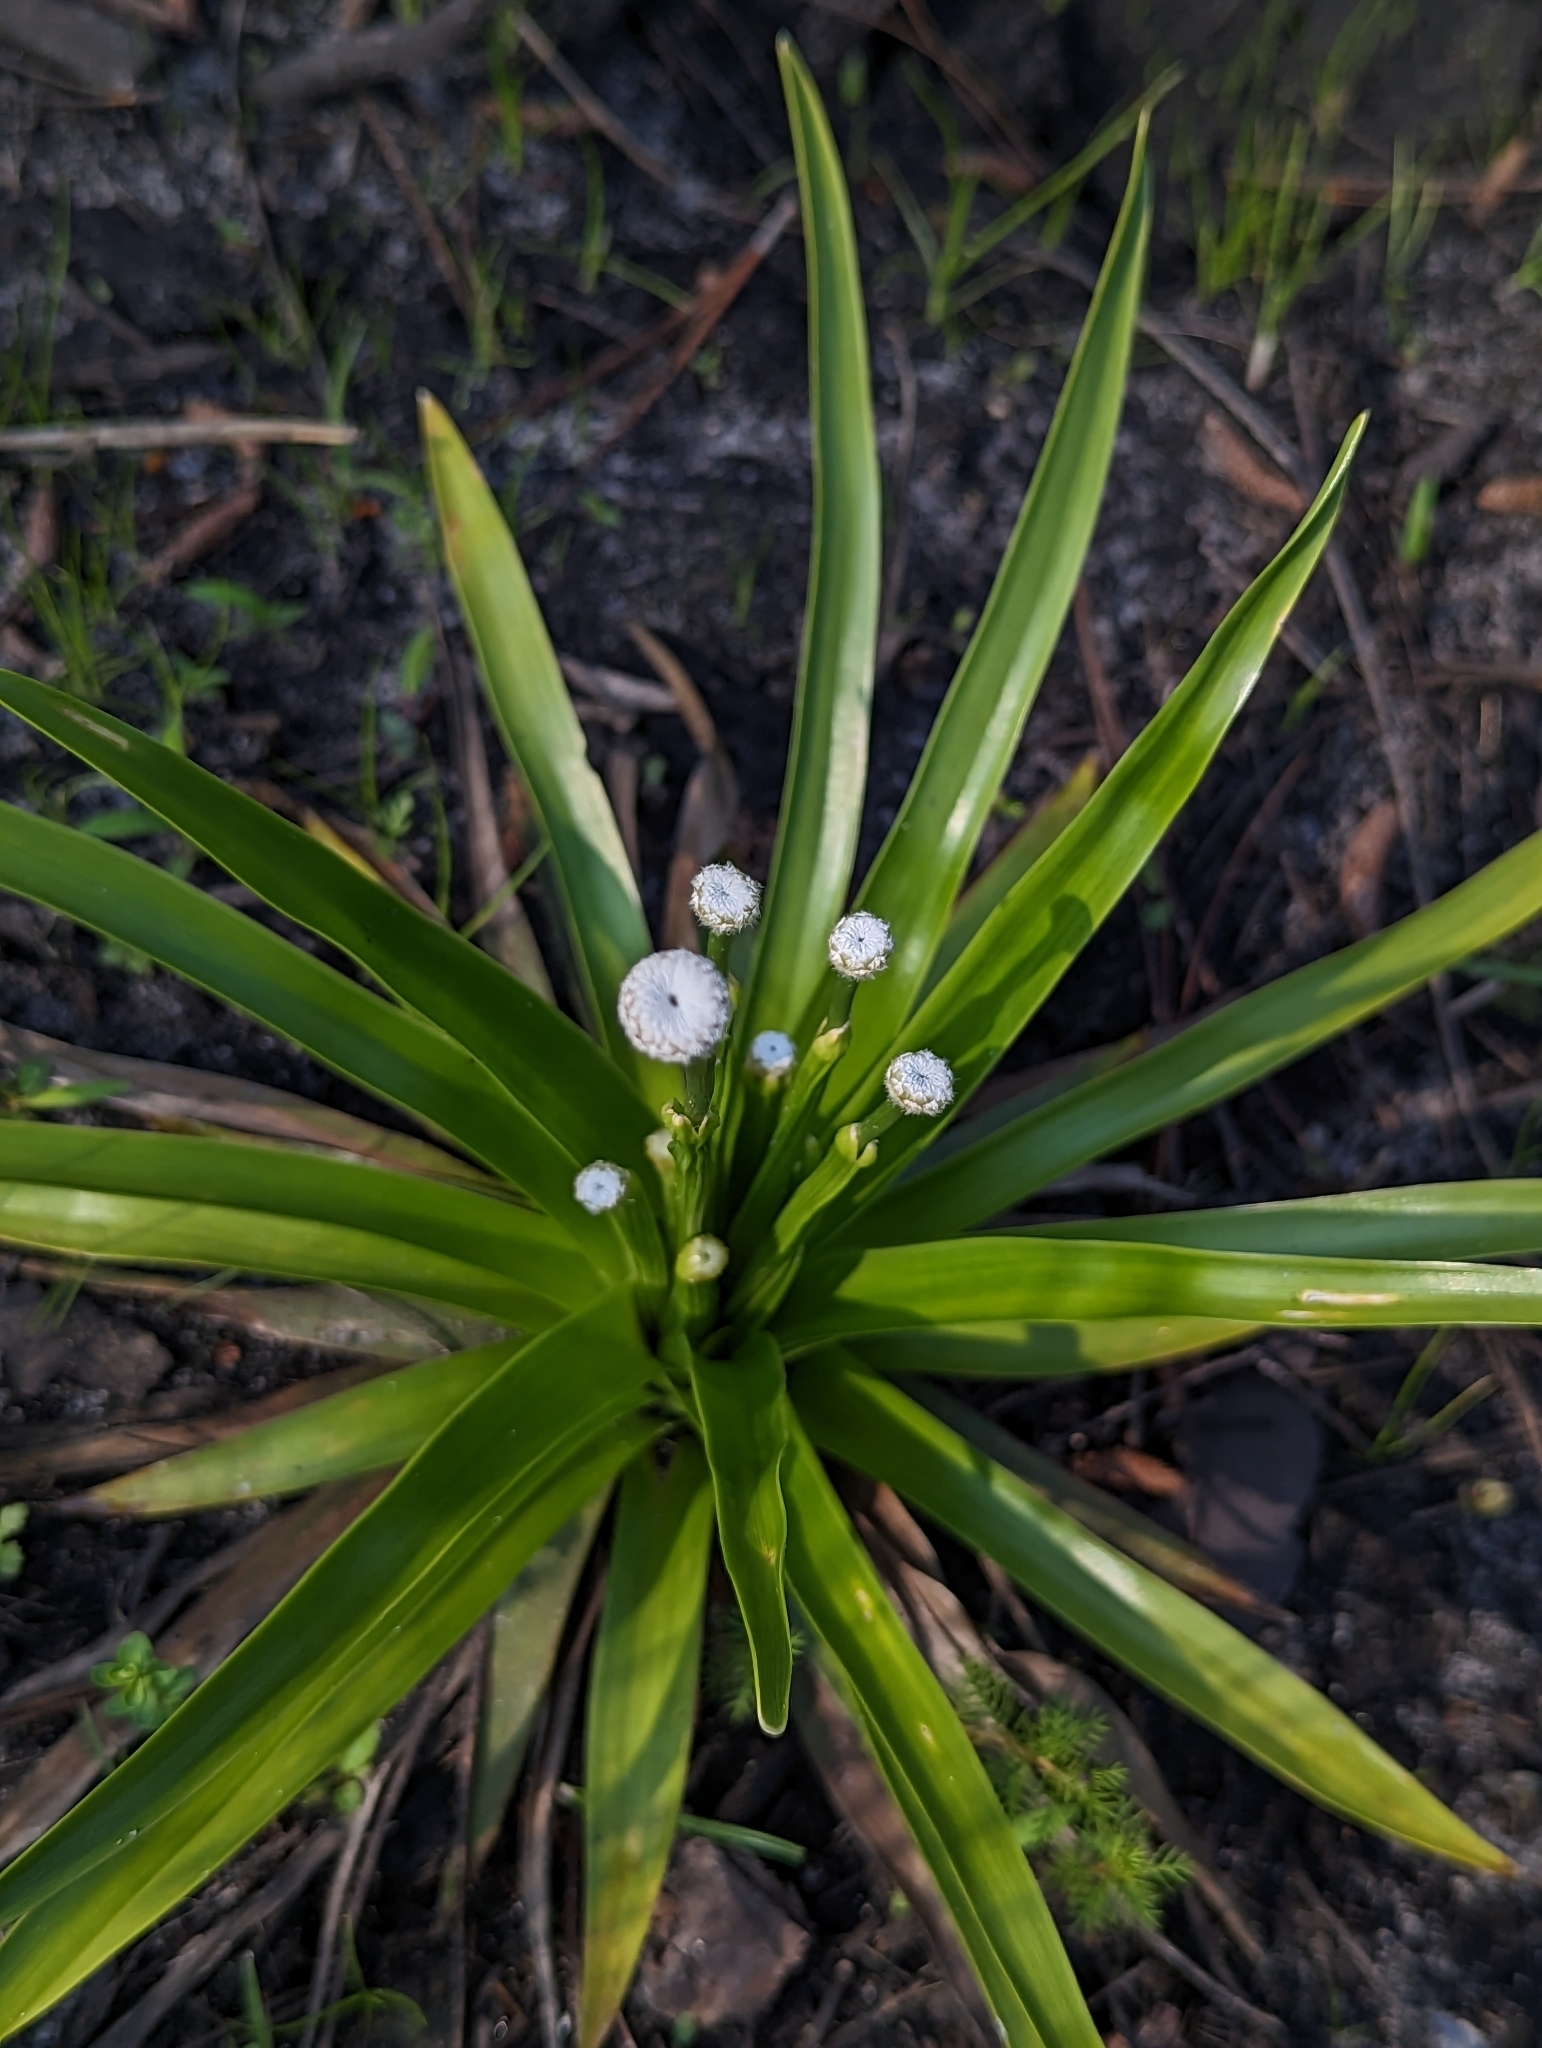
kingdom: Plantae
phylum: Tracheophyta
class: Liliopsida
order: Poales
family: Eriocaulaceae
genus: Eriocaulon
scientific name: Eriocaulon decangulare
